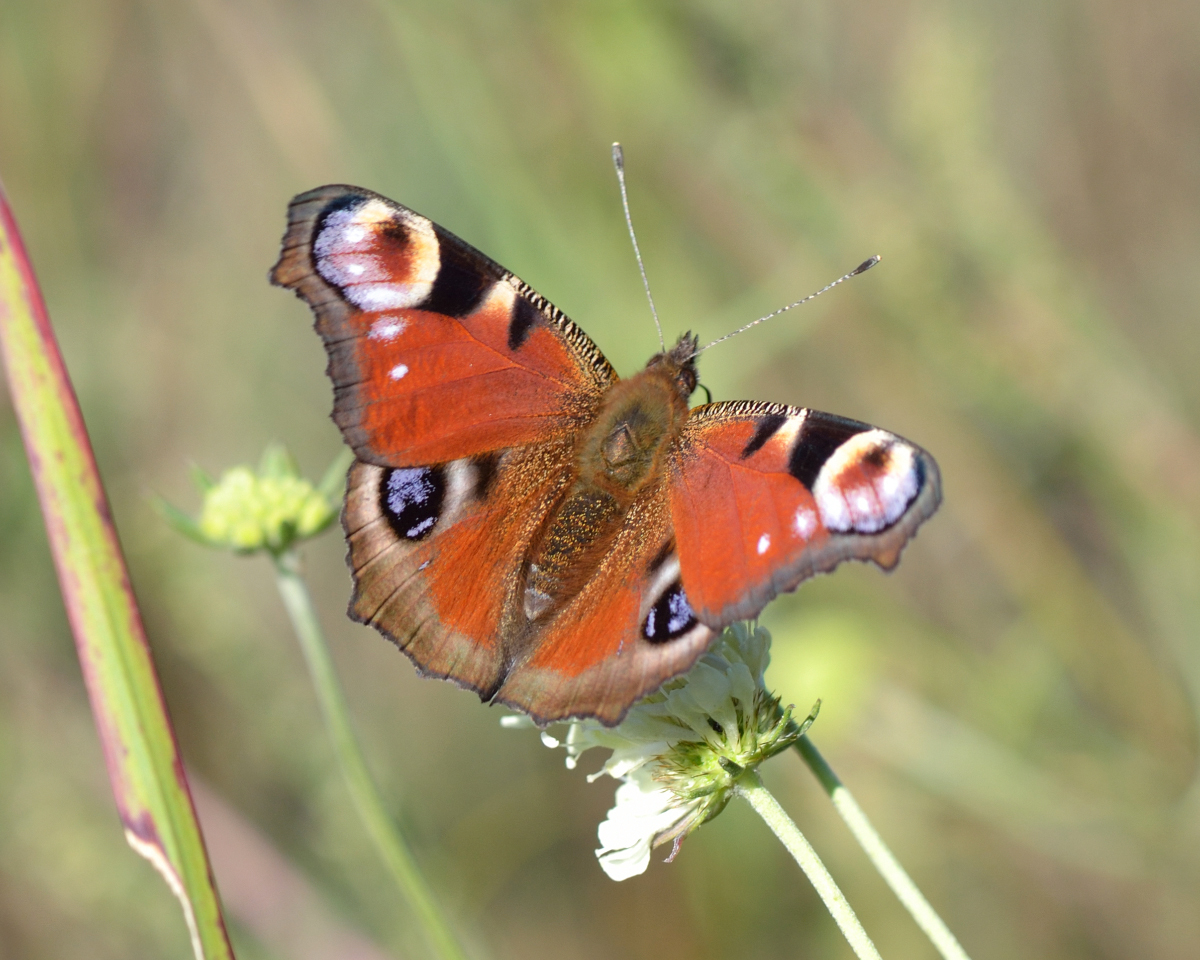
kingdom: Animalia
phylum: Arthropoda
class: Insecta
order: Lepidoptera
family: Nymphalidae
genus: Aglais
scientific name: Aglais io
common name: Peacock
